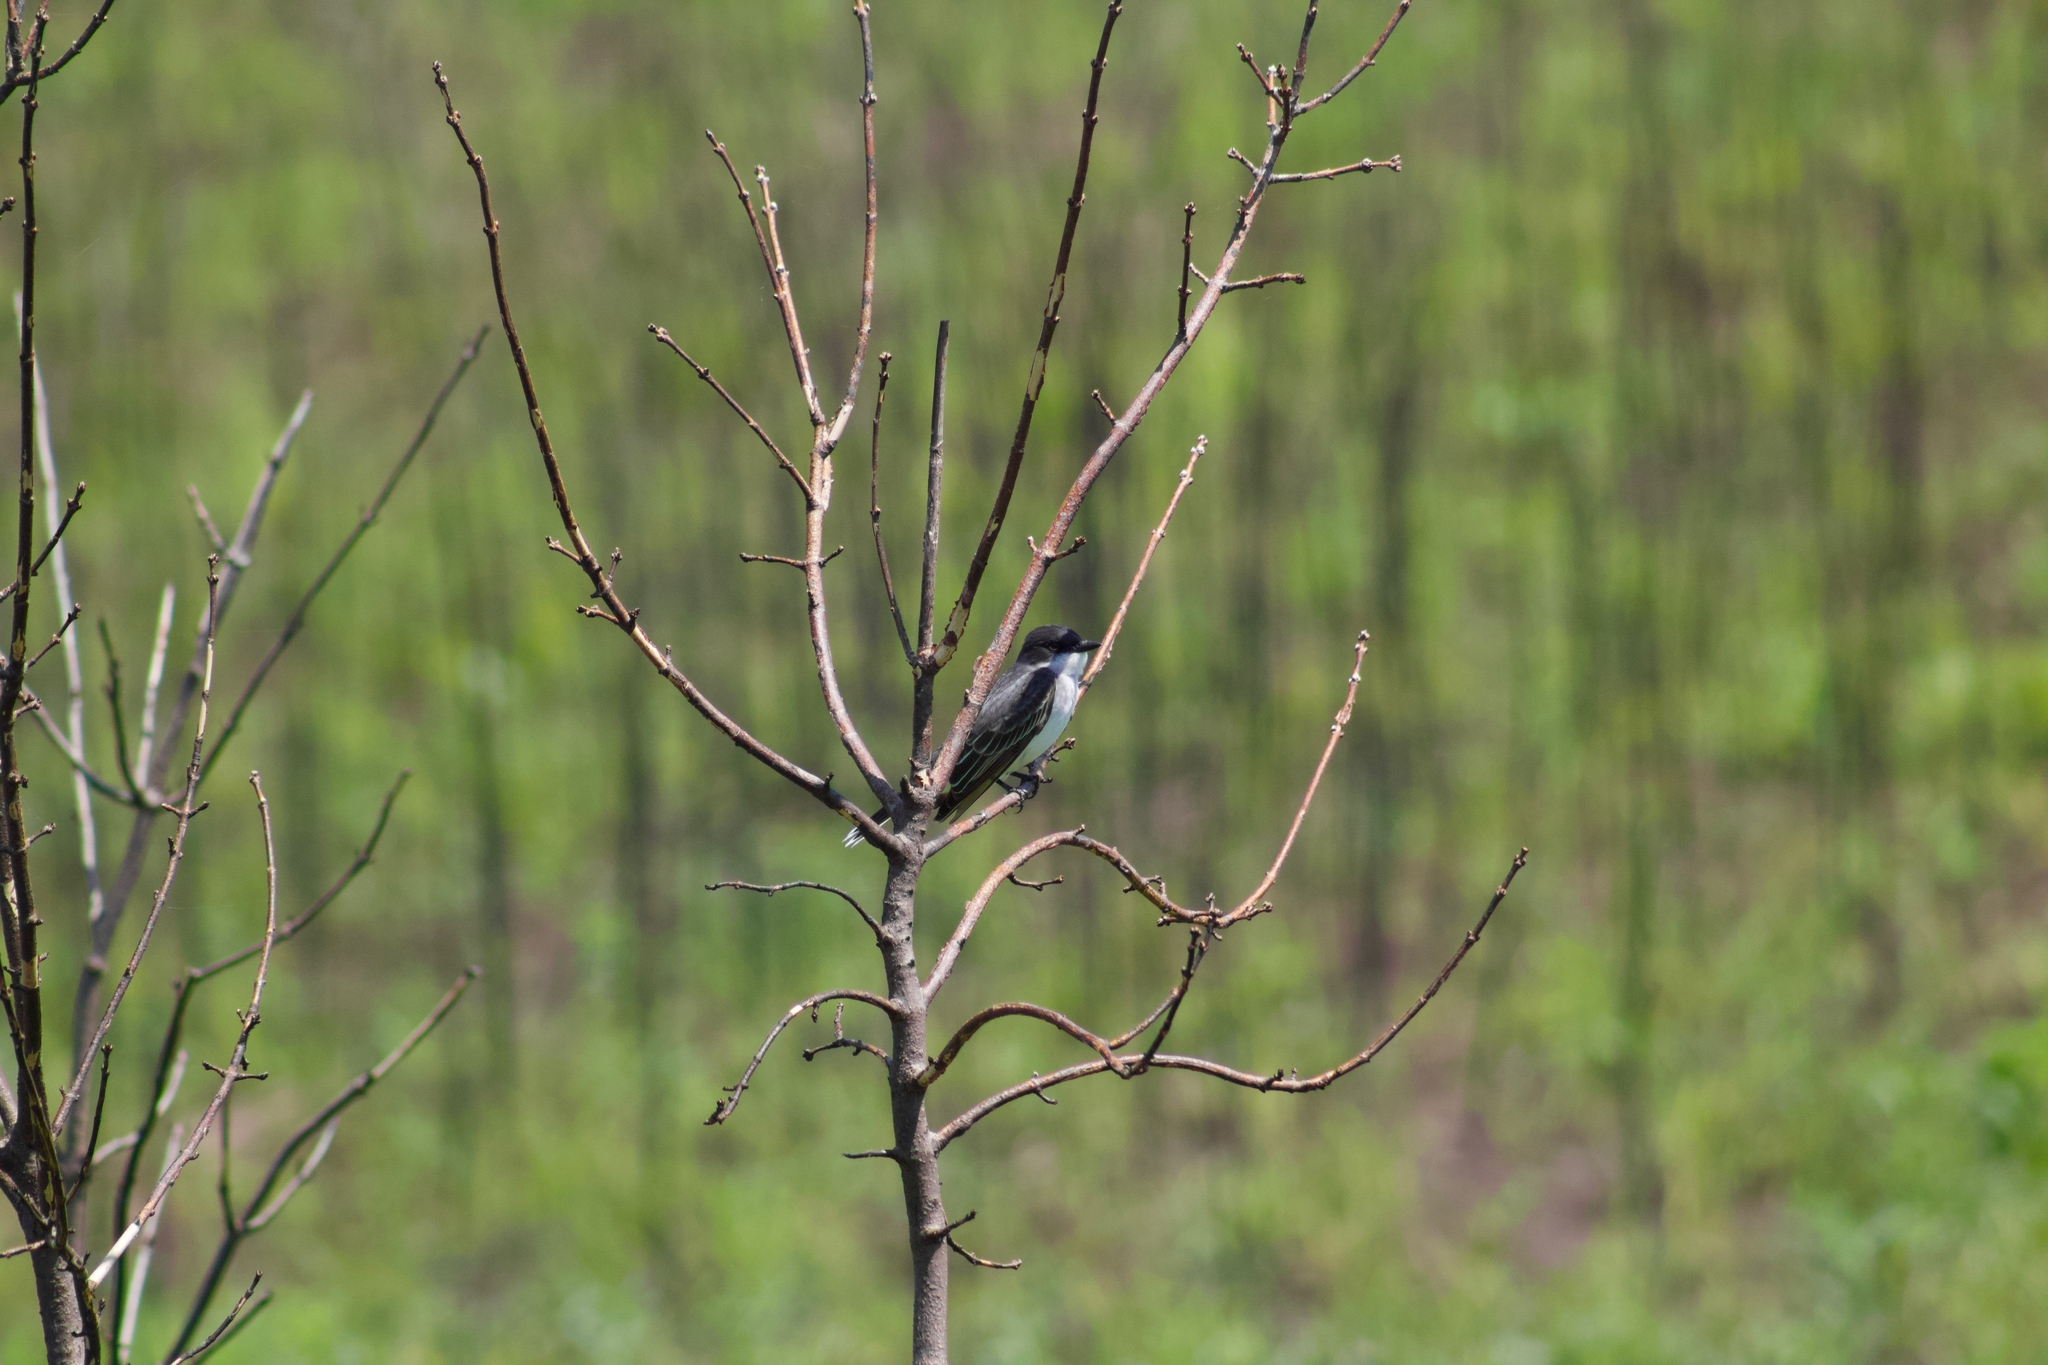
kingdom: Animalia
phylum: Chordata
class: Aves
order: Passeriformes
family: Tyrannidae
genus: Tyrannus
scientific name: Tyrannus tyrannus
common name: Eastern kingbird
